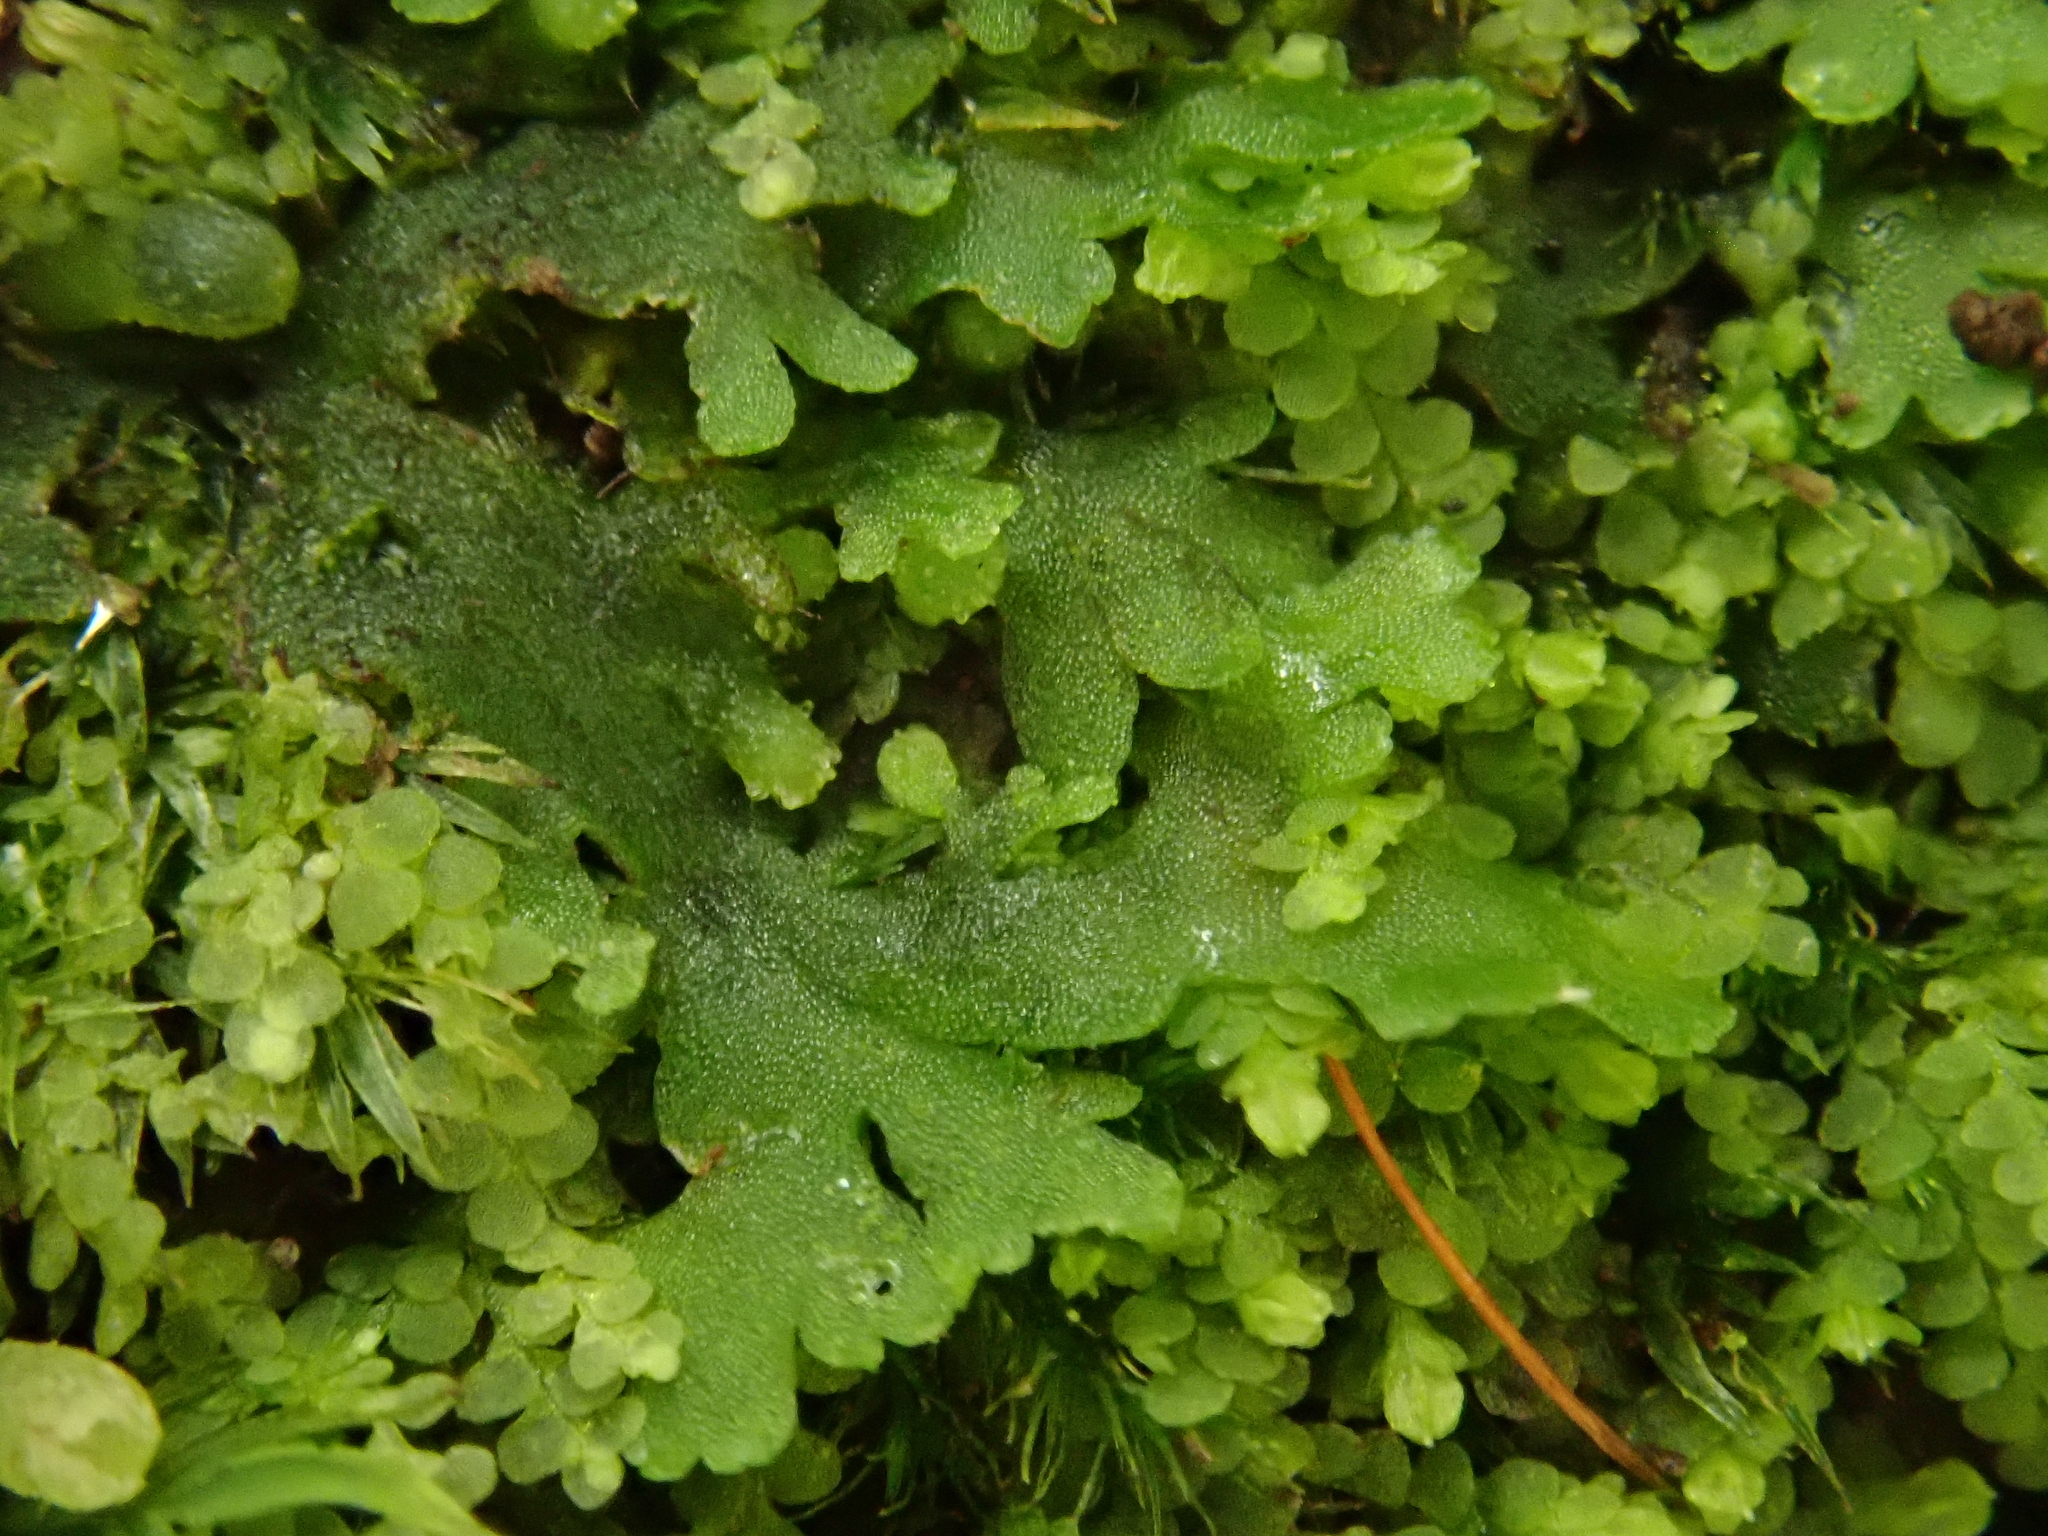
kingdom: Plantae
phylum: Marchantiophyta
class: Jungermanniopsida
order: Metzgeriales
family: Aneuraceae
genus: Riccardia
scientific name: Riccardia chamaedryfolia
